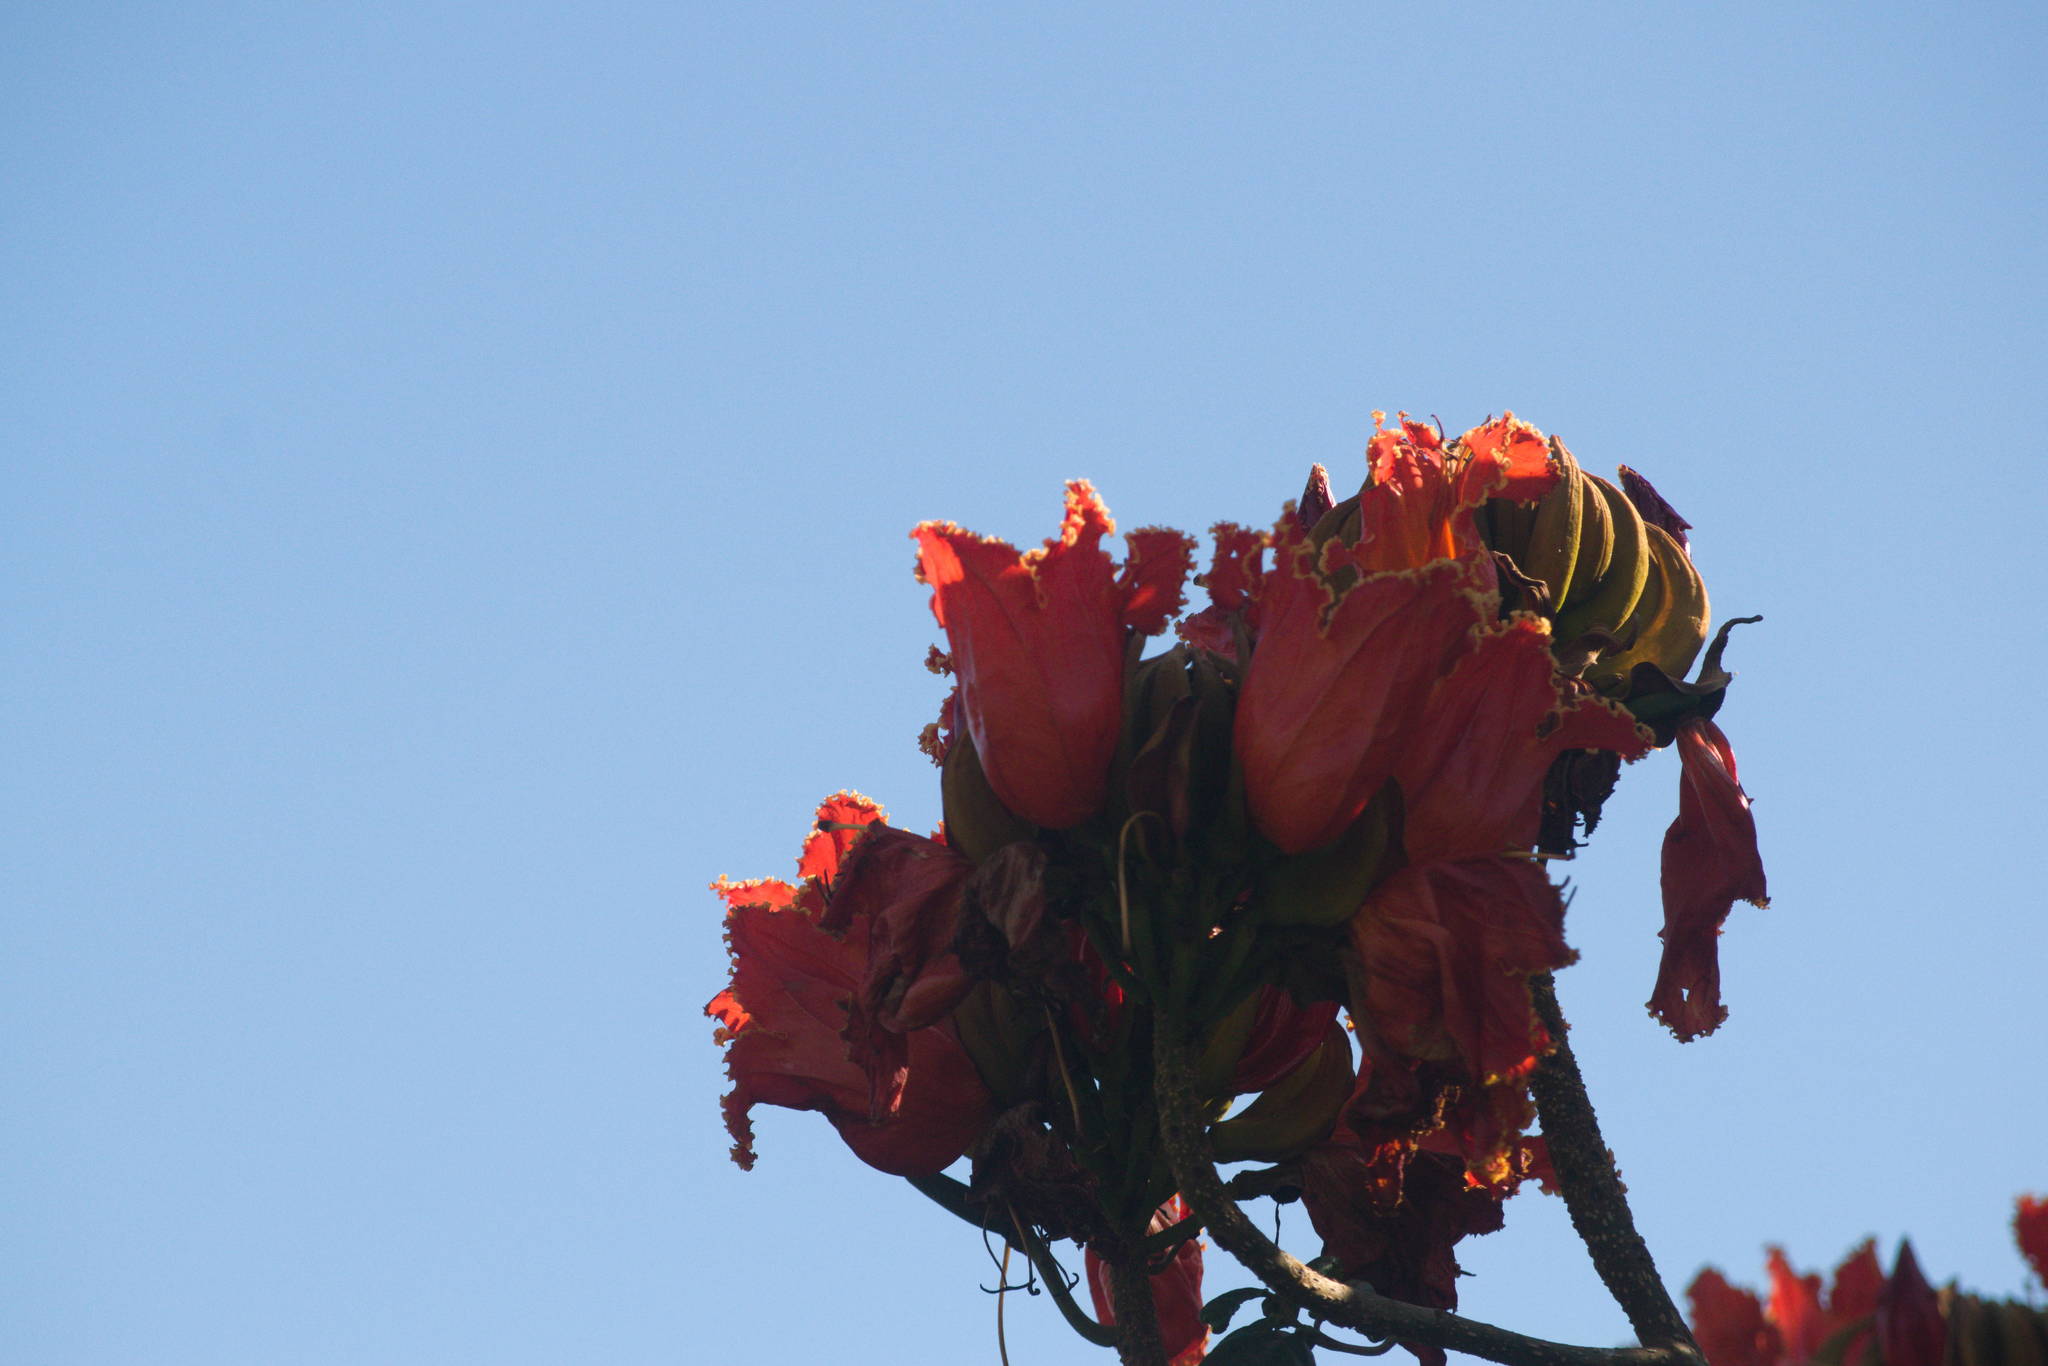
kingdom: Plantae
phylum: Tracheophyta
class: Magnoliopsida
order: Lamiales
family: Bignoniaceae
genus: Spathodea
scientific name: Spathodea campanulata
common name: African tuliptree
